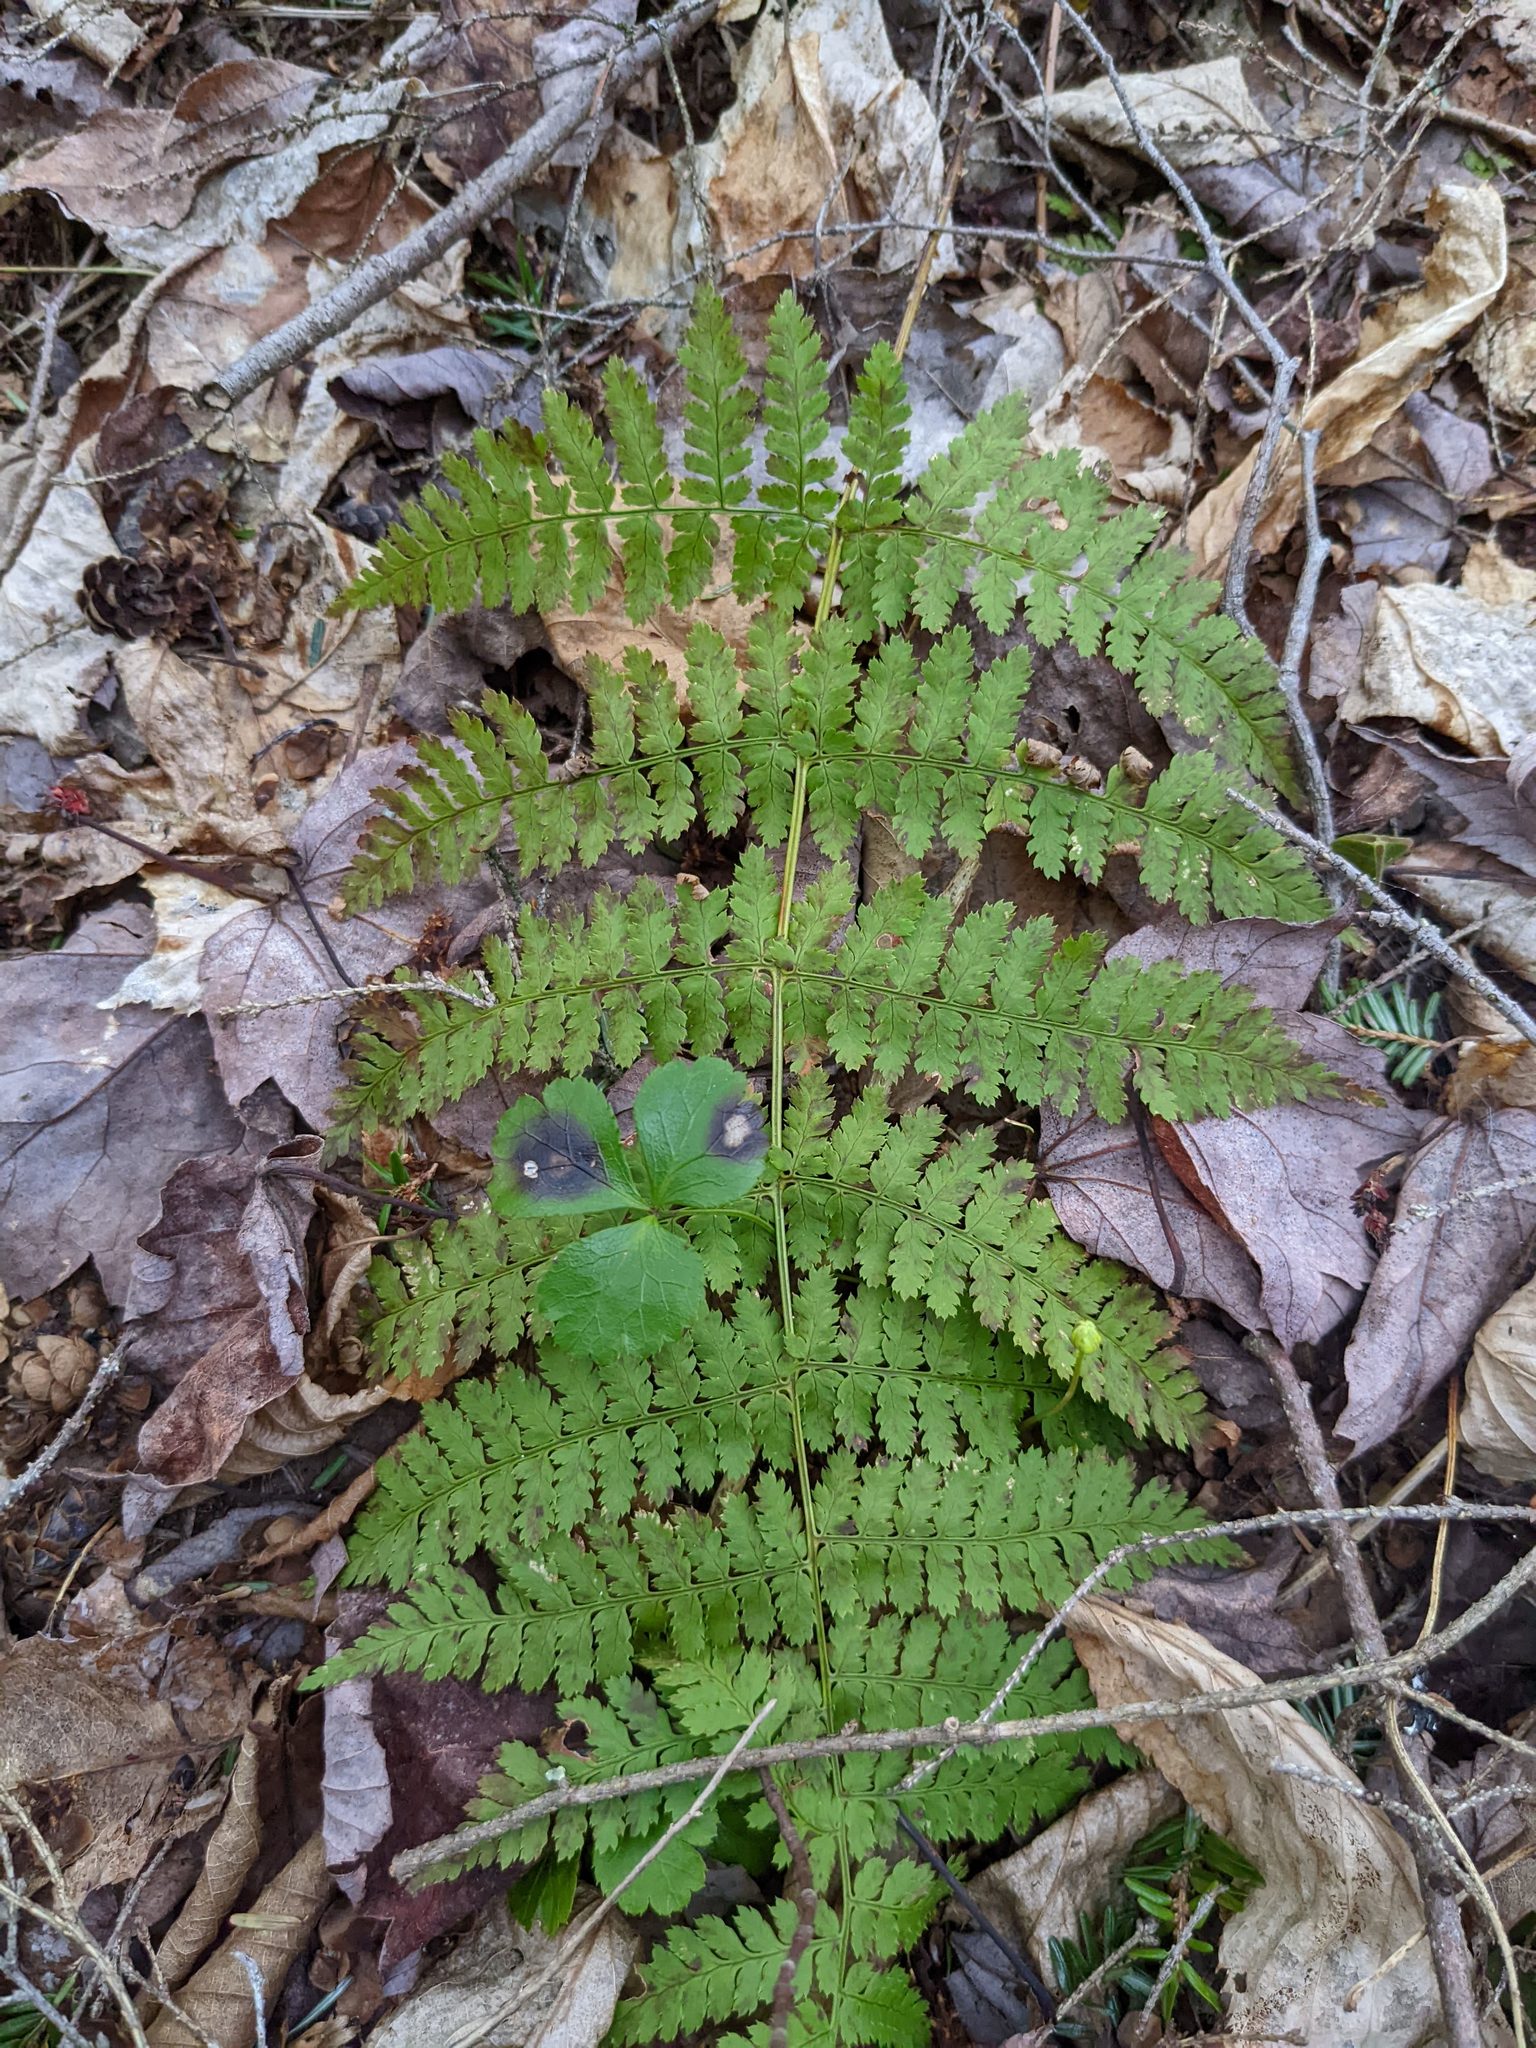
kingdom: Plantae
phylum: Tracheophyta
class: Polypodiopsida
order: Polypodiales
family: Dryopteridaceae
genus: Dryopteris
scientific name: Dryopteris intermedia
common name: Evergreen wood fern
